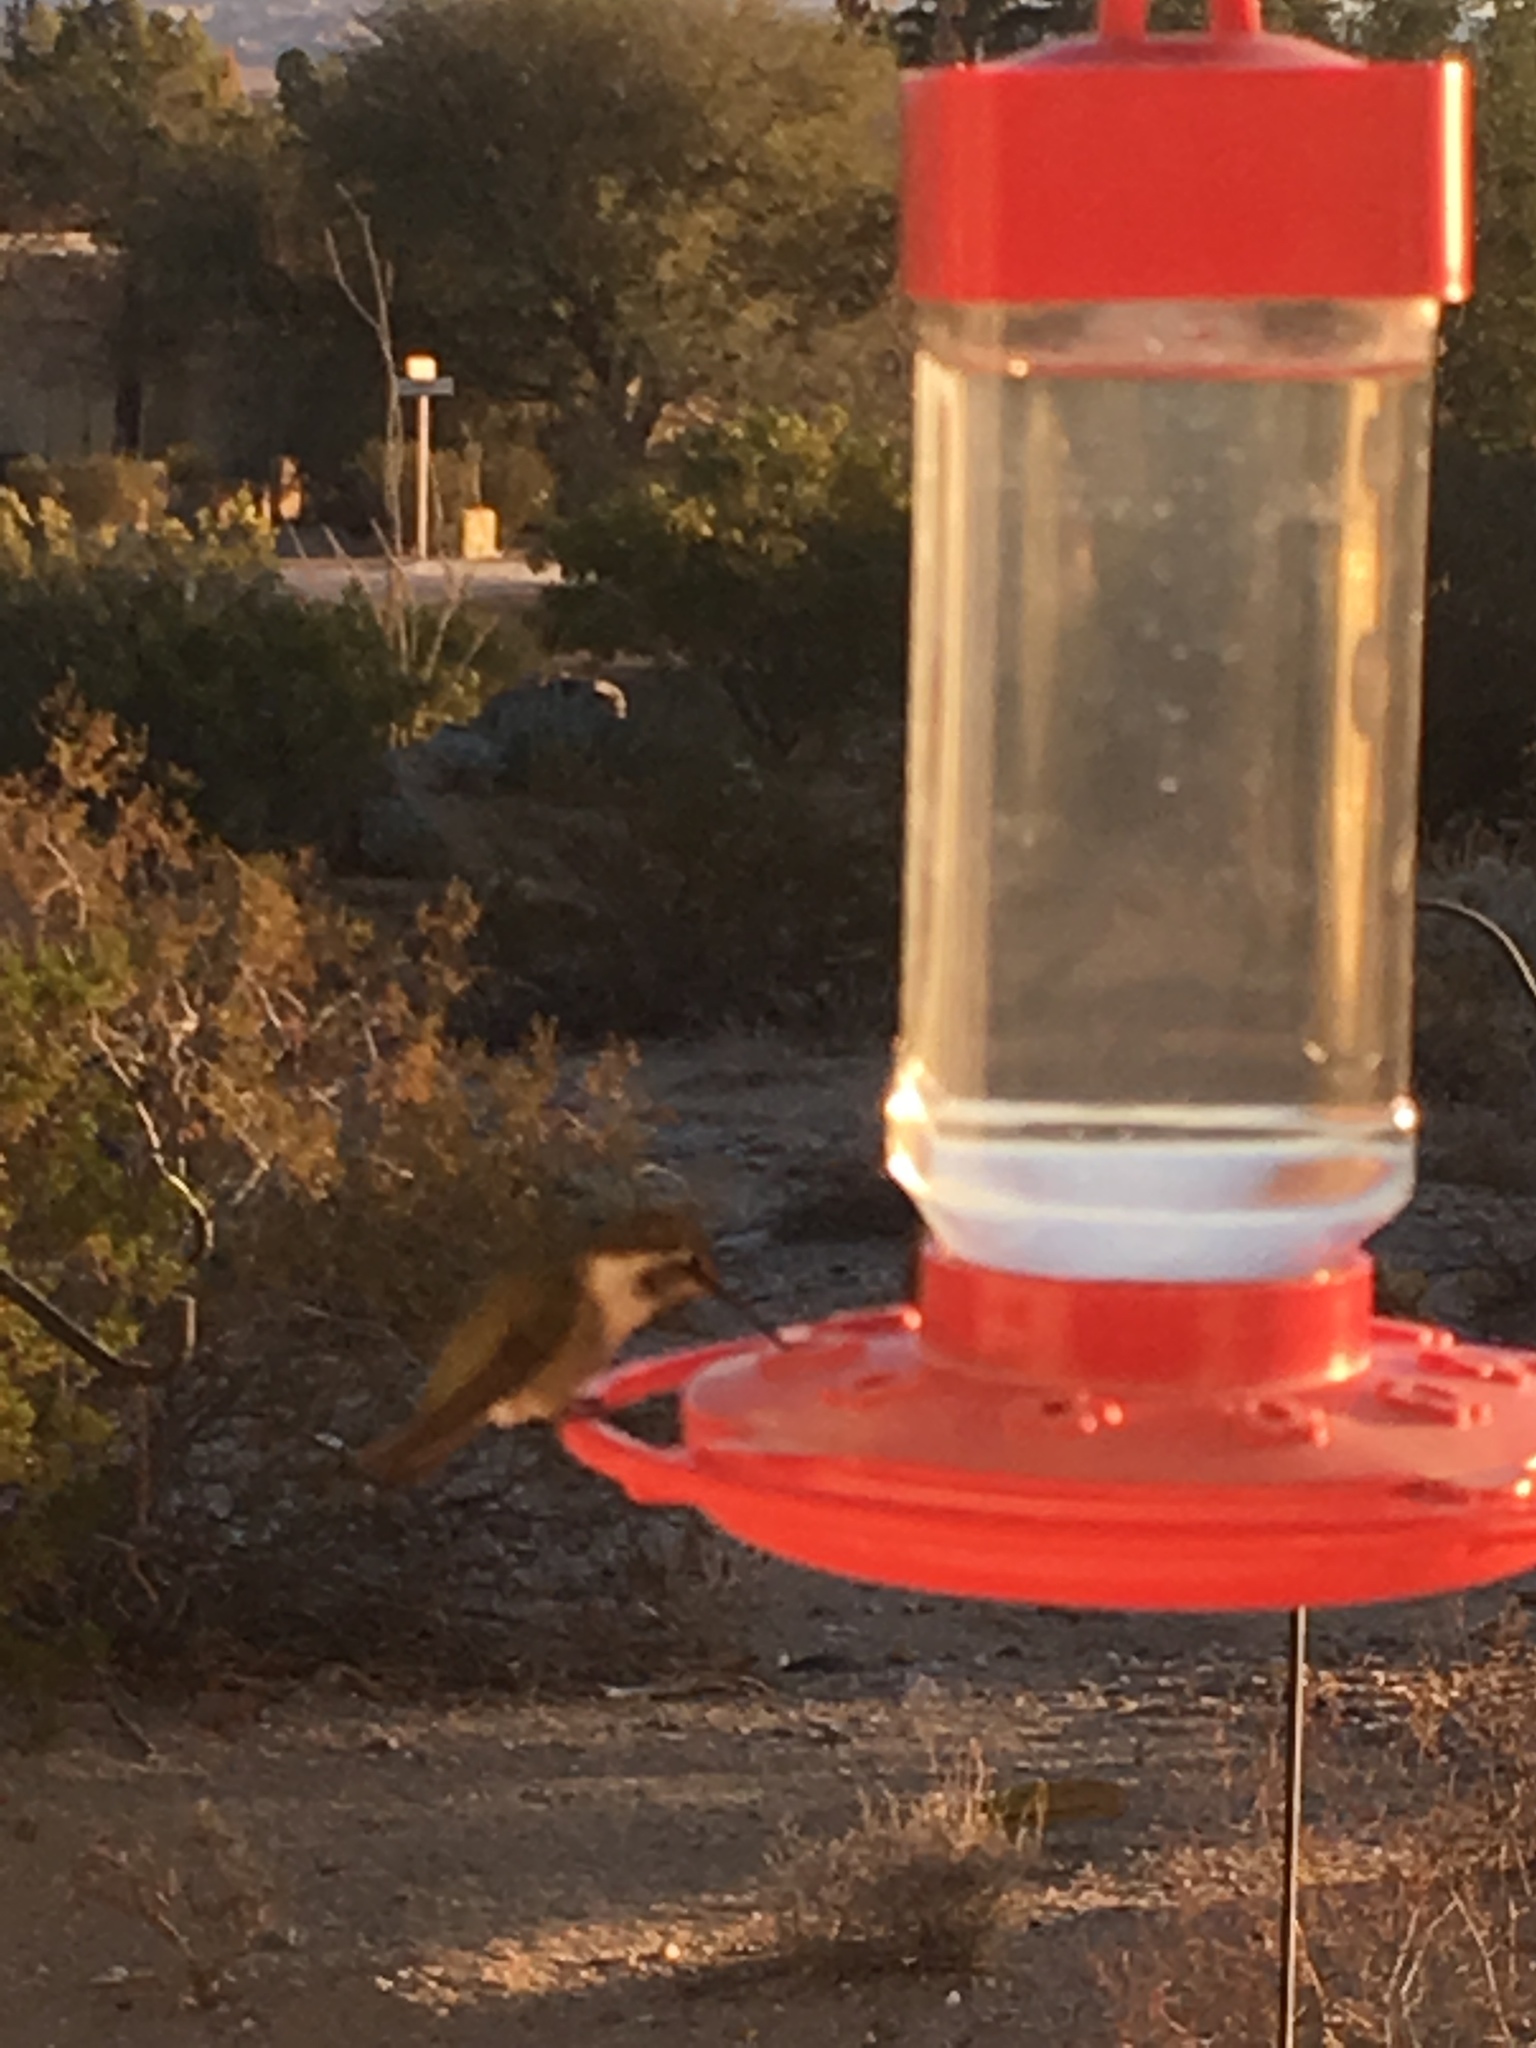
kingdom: Animalia
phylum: Chordata
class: Aves
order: Apodiformes
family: Trochilidae
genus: Calypte
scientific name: Calypte costae
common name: Costa's hummingbird
